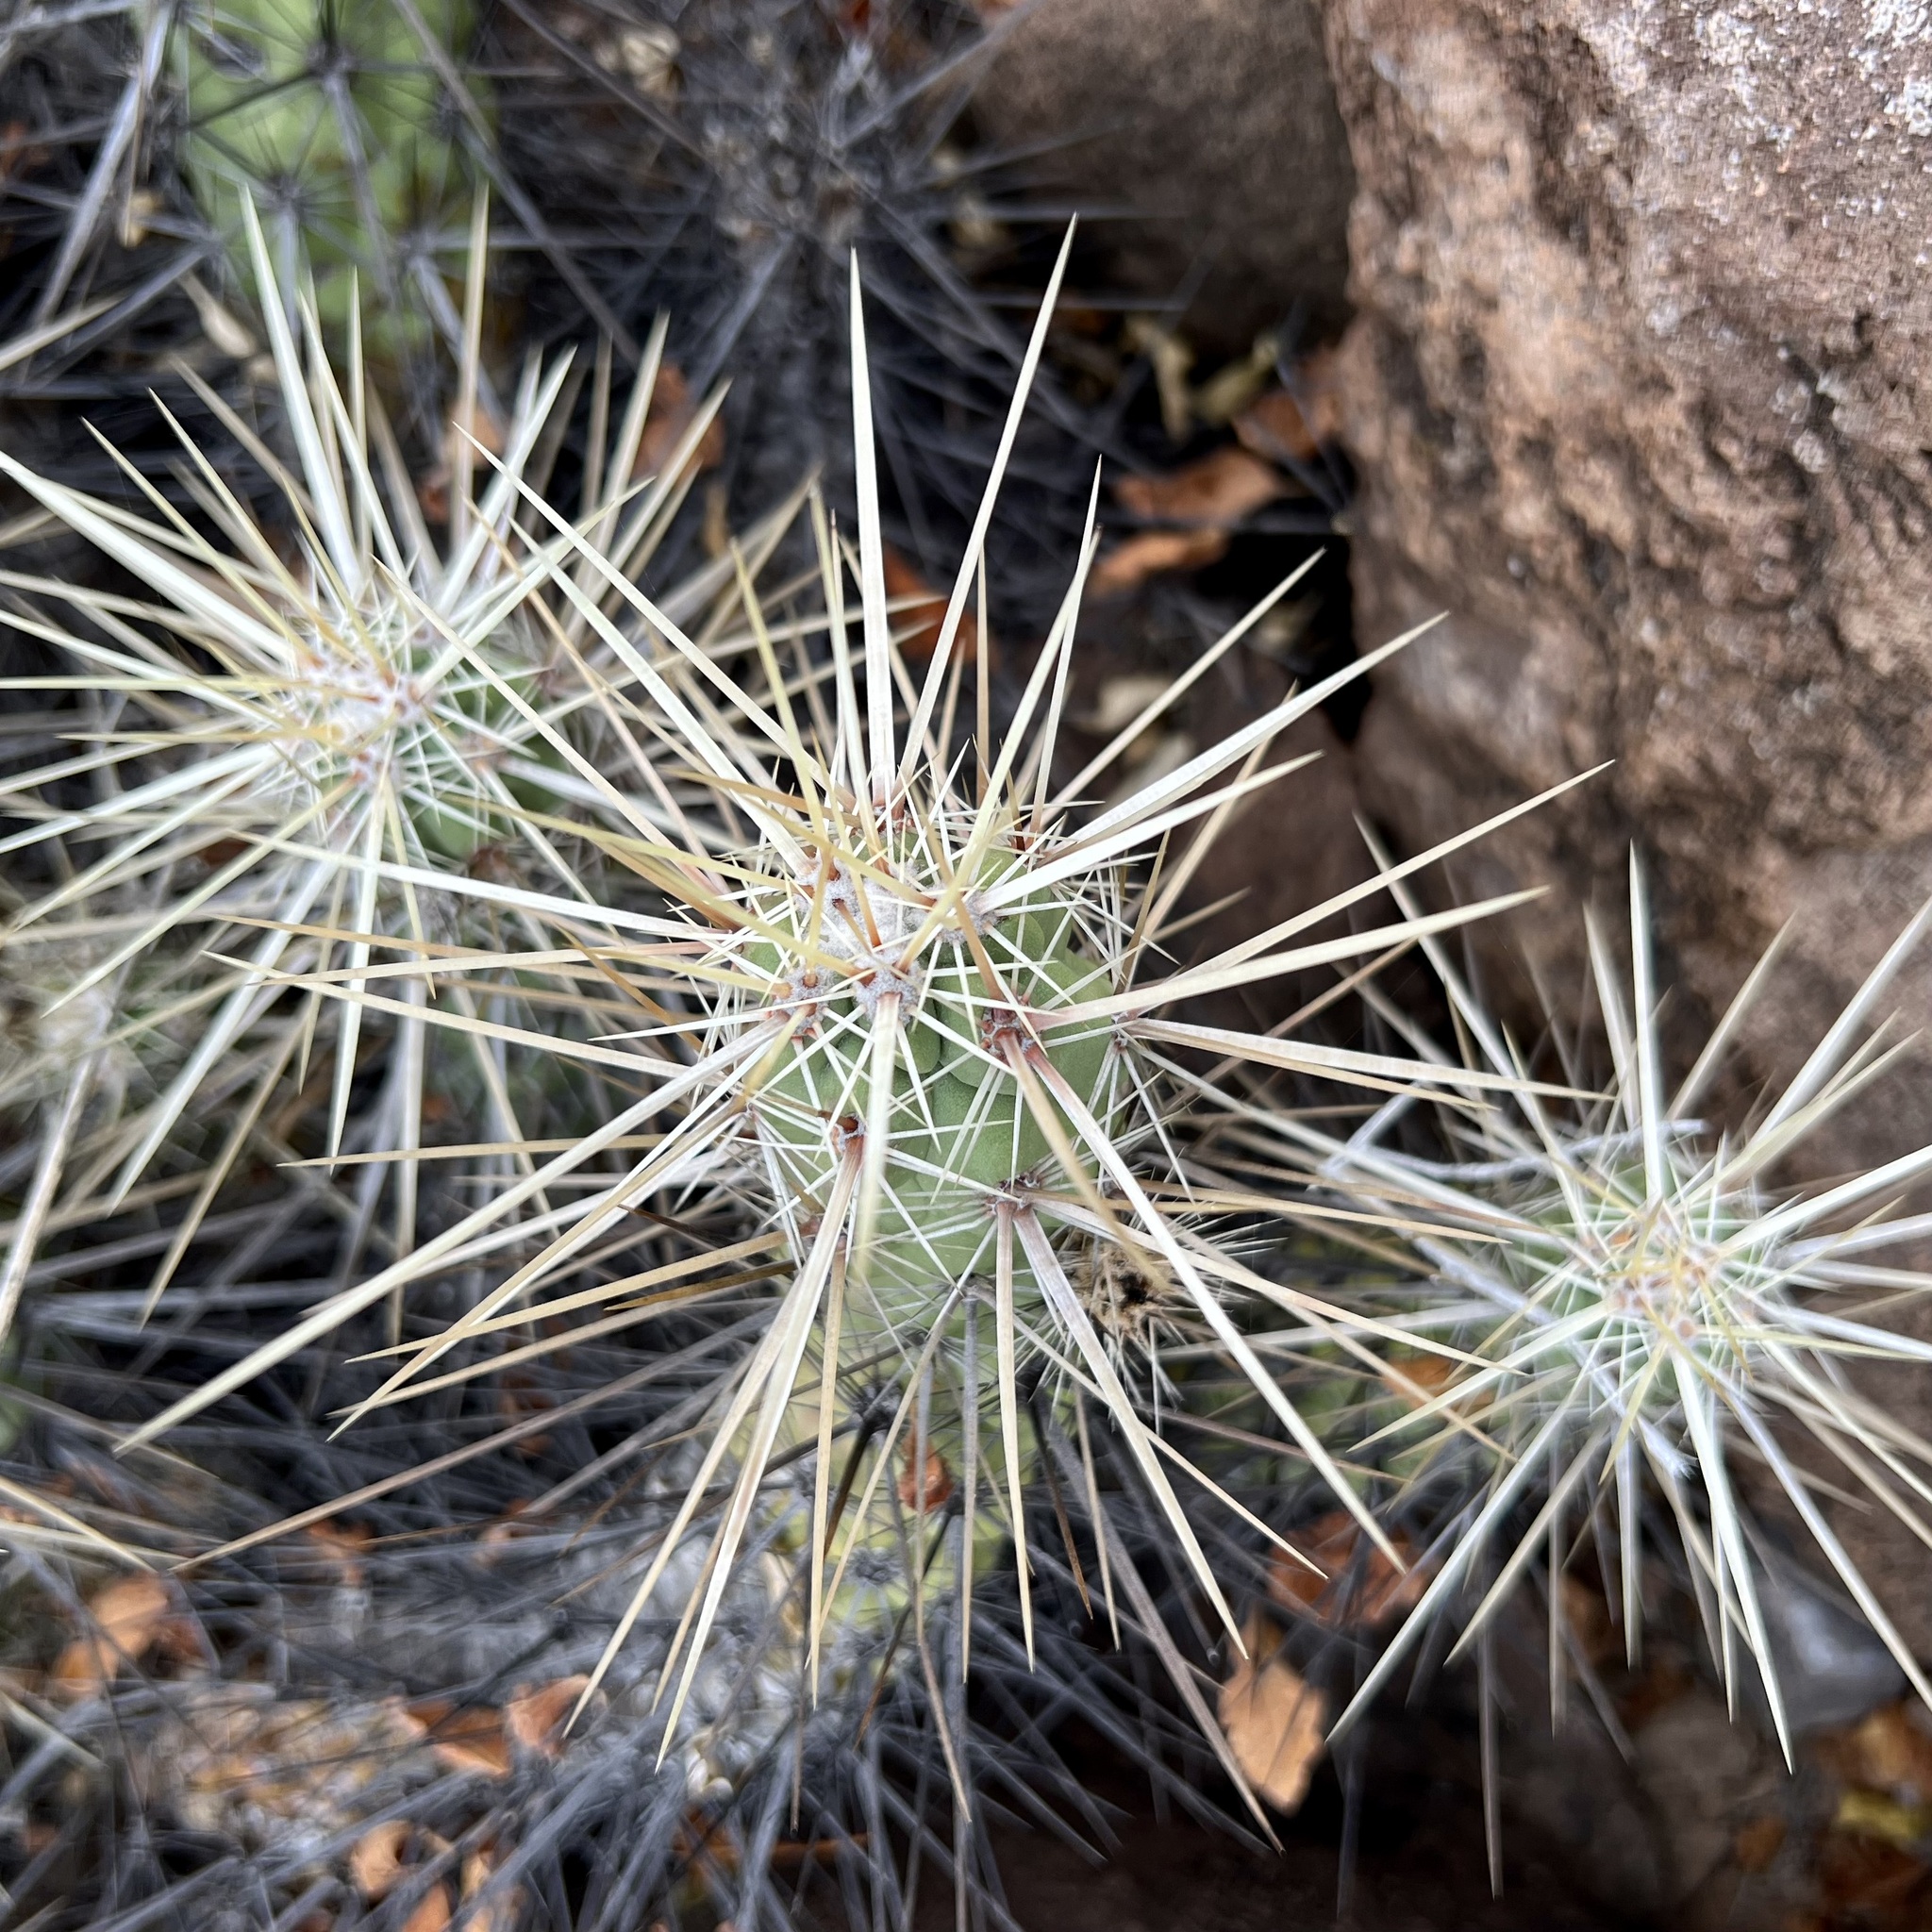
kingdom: Plantae
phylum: Tracheophyta
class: Magnoliopsida
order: Caryophyllales
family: Cactaceae
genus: Echinocereus
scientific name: Echinocereus brandegeei
